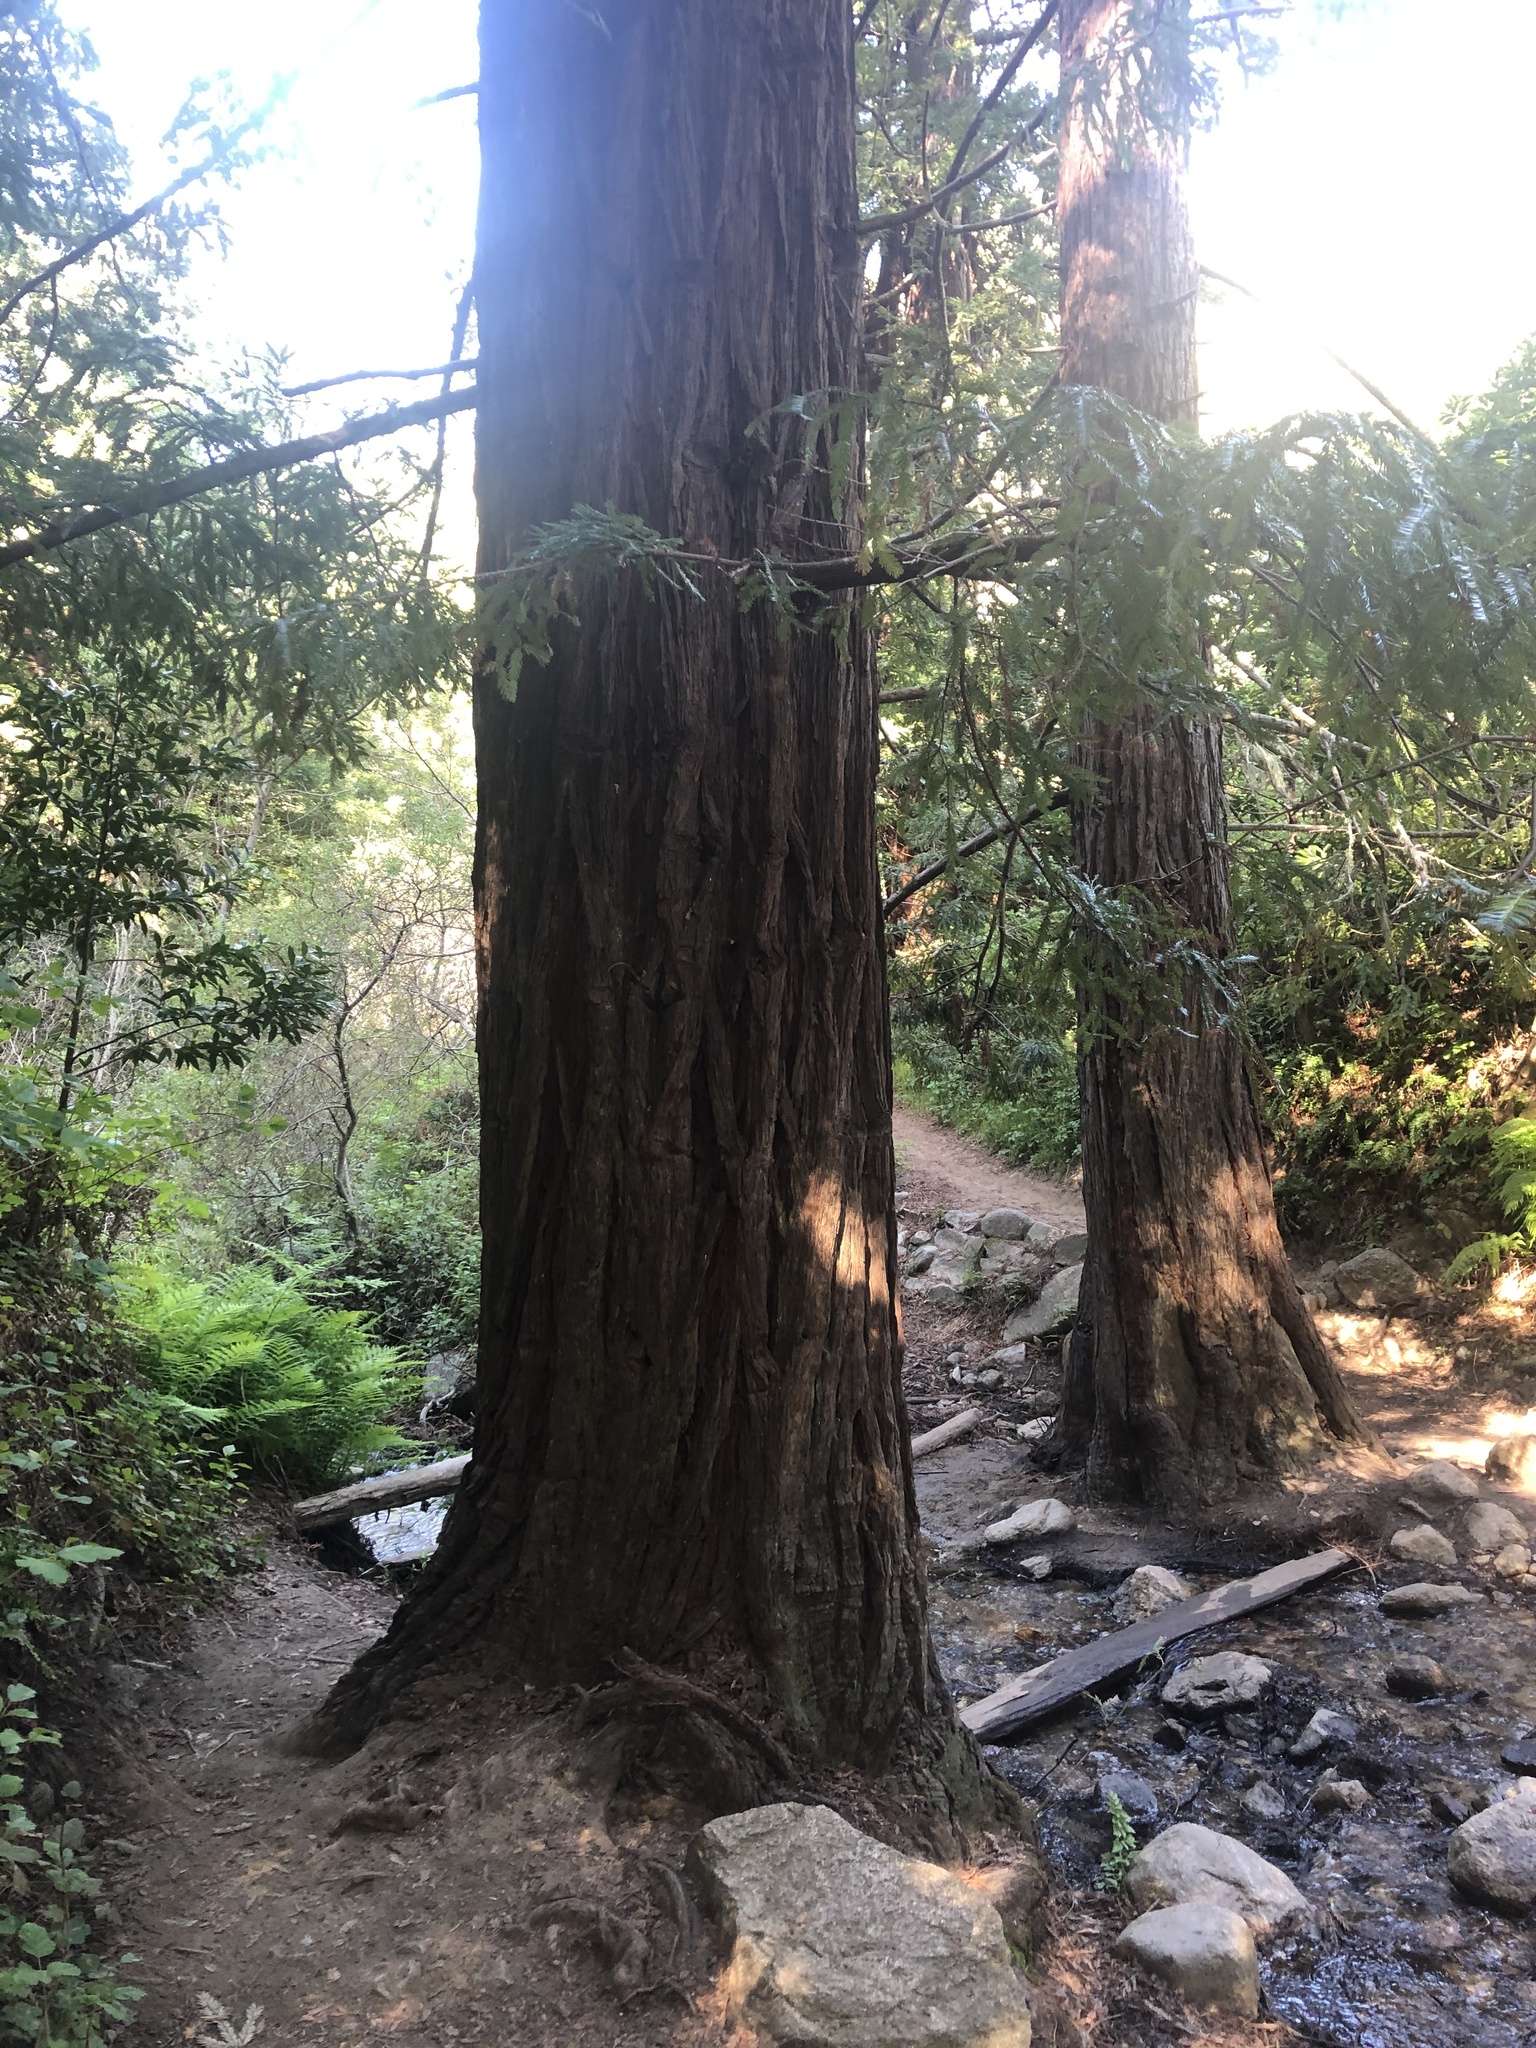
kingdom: Plantae
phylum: Tracheophyta
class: Pinopsida
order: Pinales
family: Cupressaceae
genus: Sequoia
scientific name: Sequoia sempervirens
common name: Coast redwood
